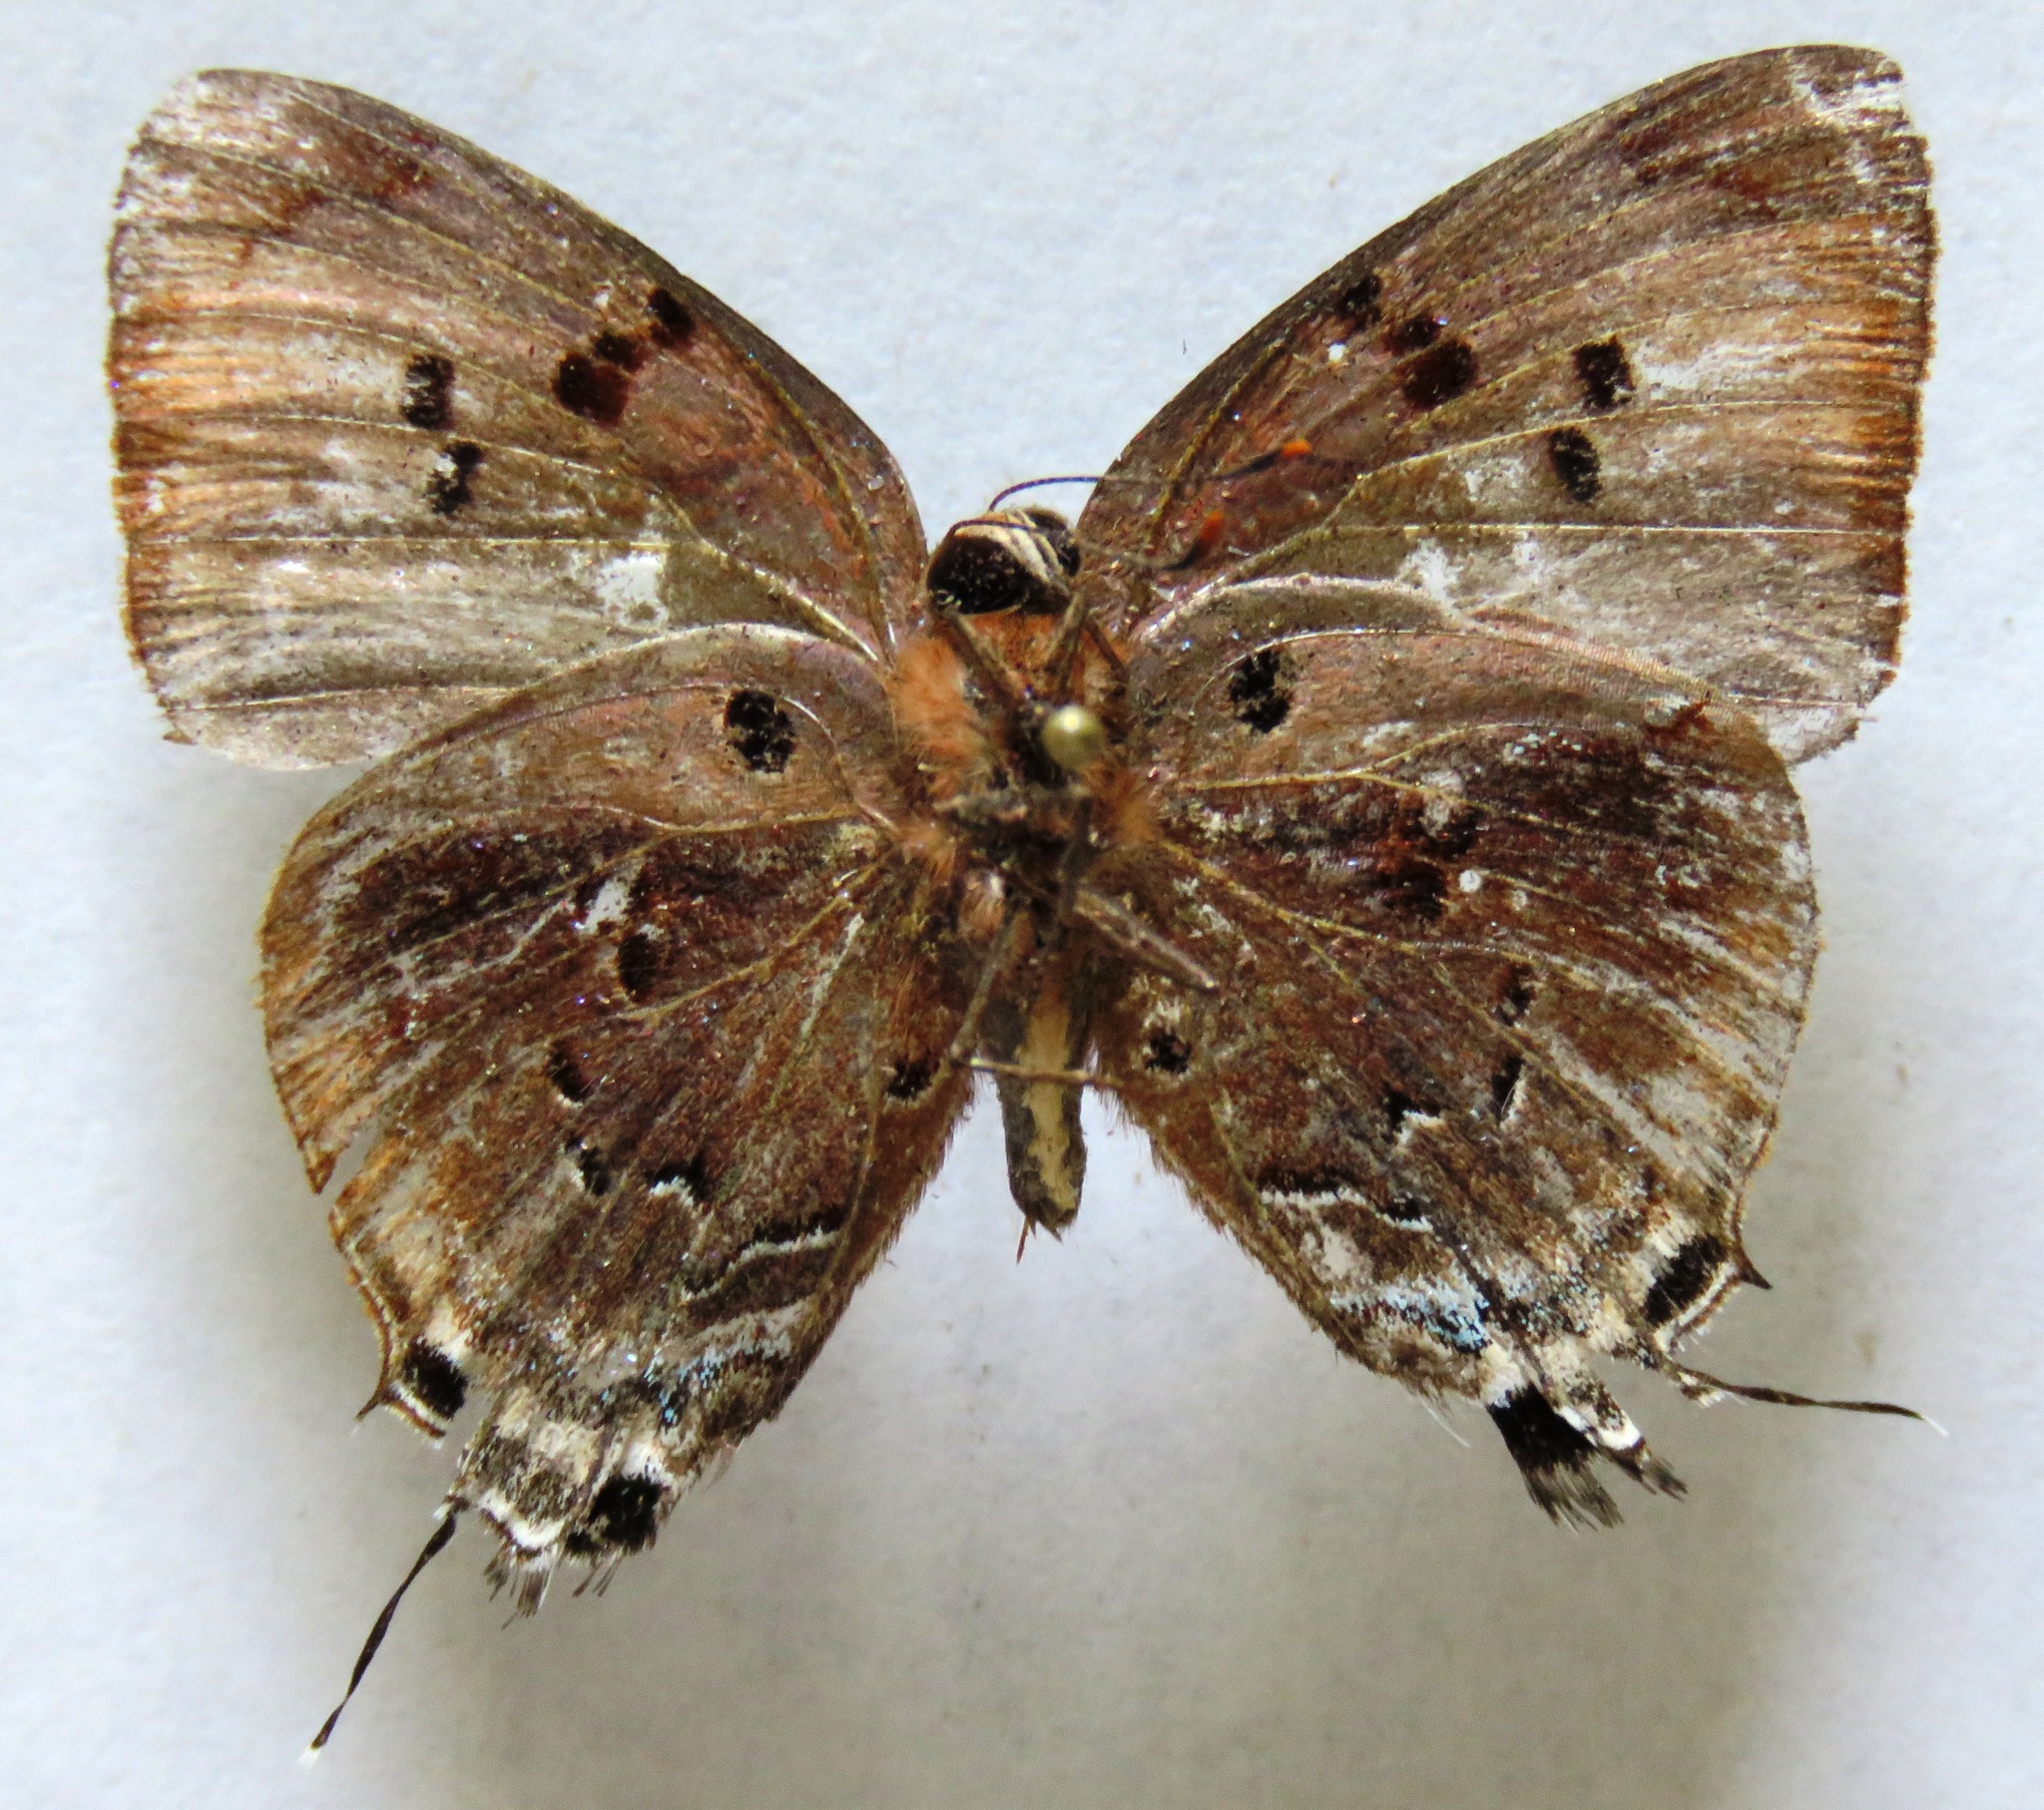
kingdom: Animalia
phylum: Arthropoda
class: Insecta
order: Lepidoptera
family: Lycaenidae
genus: Thecla
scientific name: Thecla rustan
